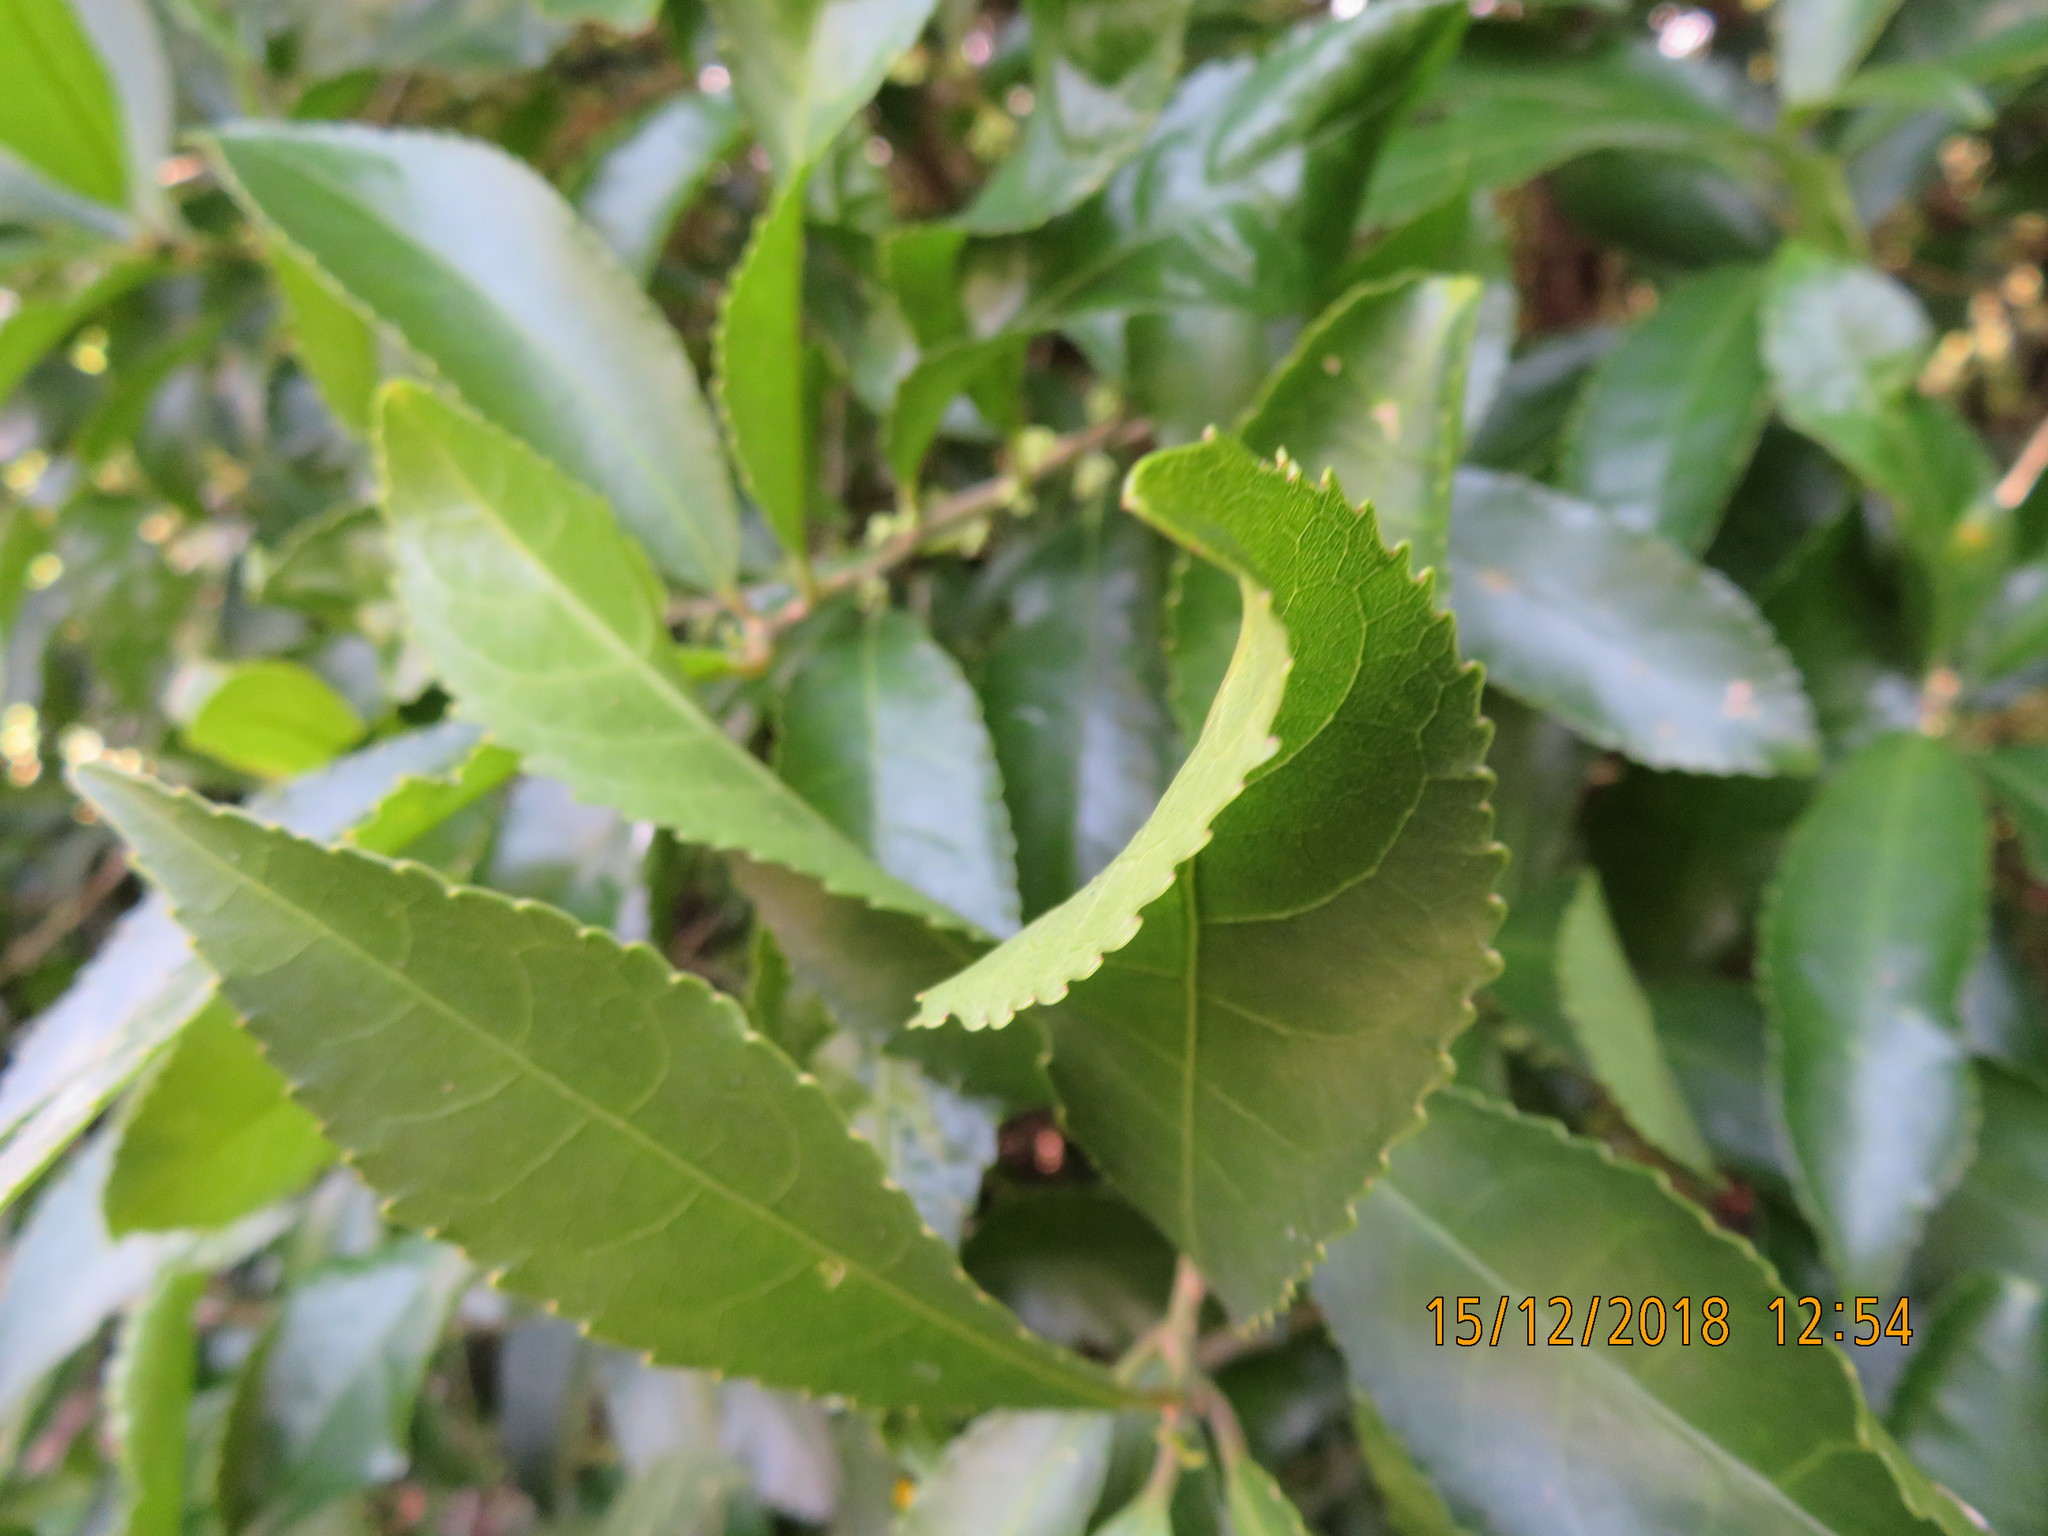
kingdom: Plantae
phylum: Tracheophyta
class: Magnoliopsida
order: Malpighiales
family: Violaceae
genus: Melicytus
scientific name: Melicytus ramiflorus
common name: Mahoe
